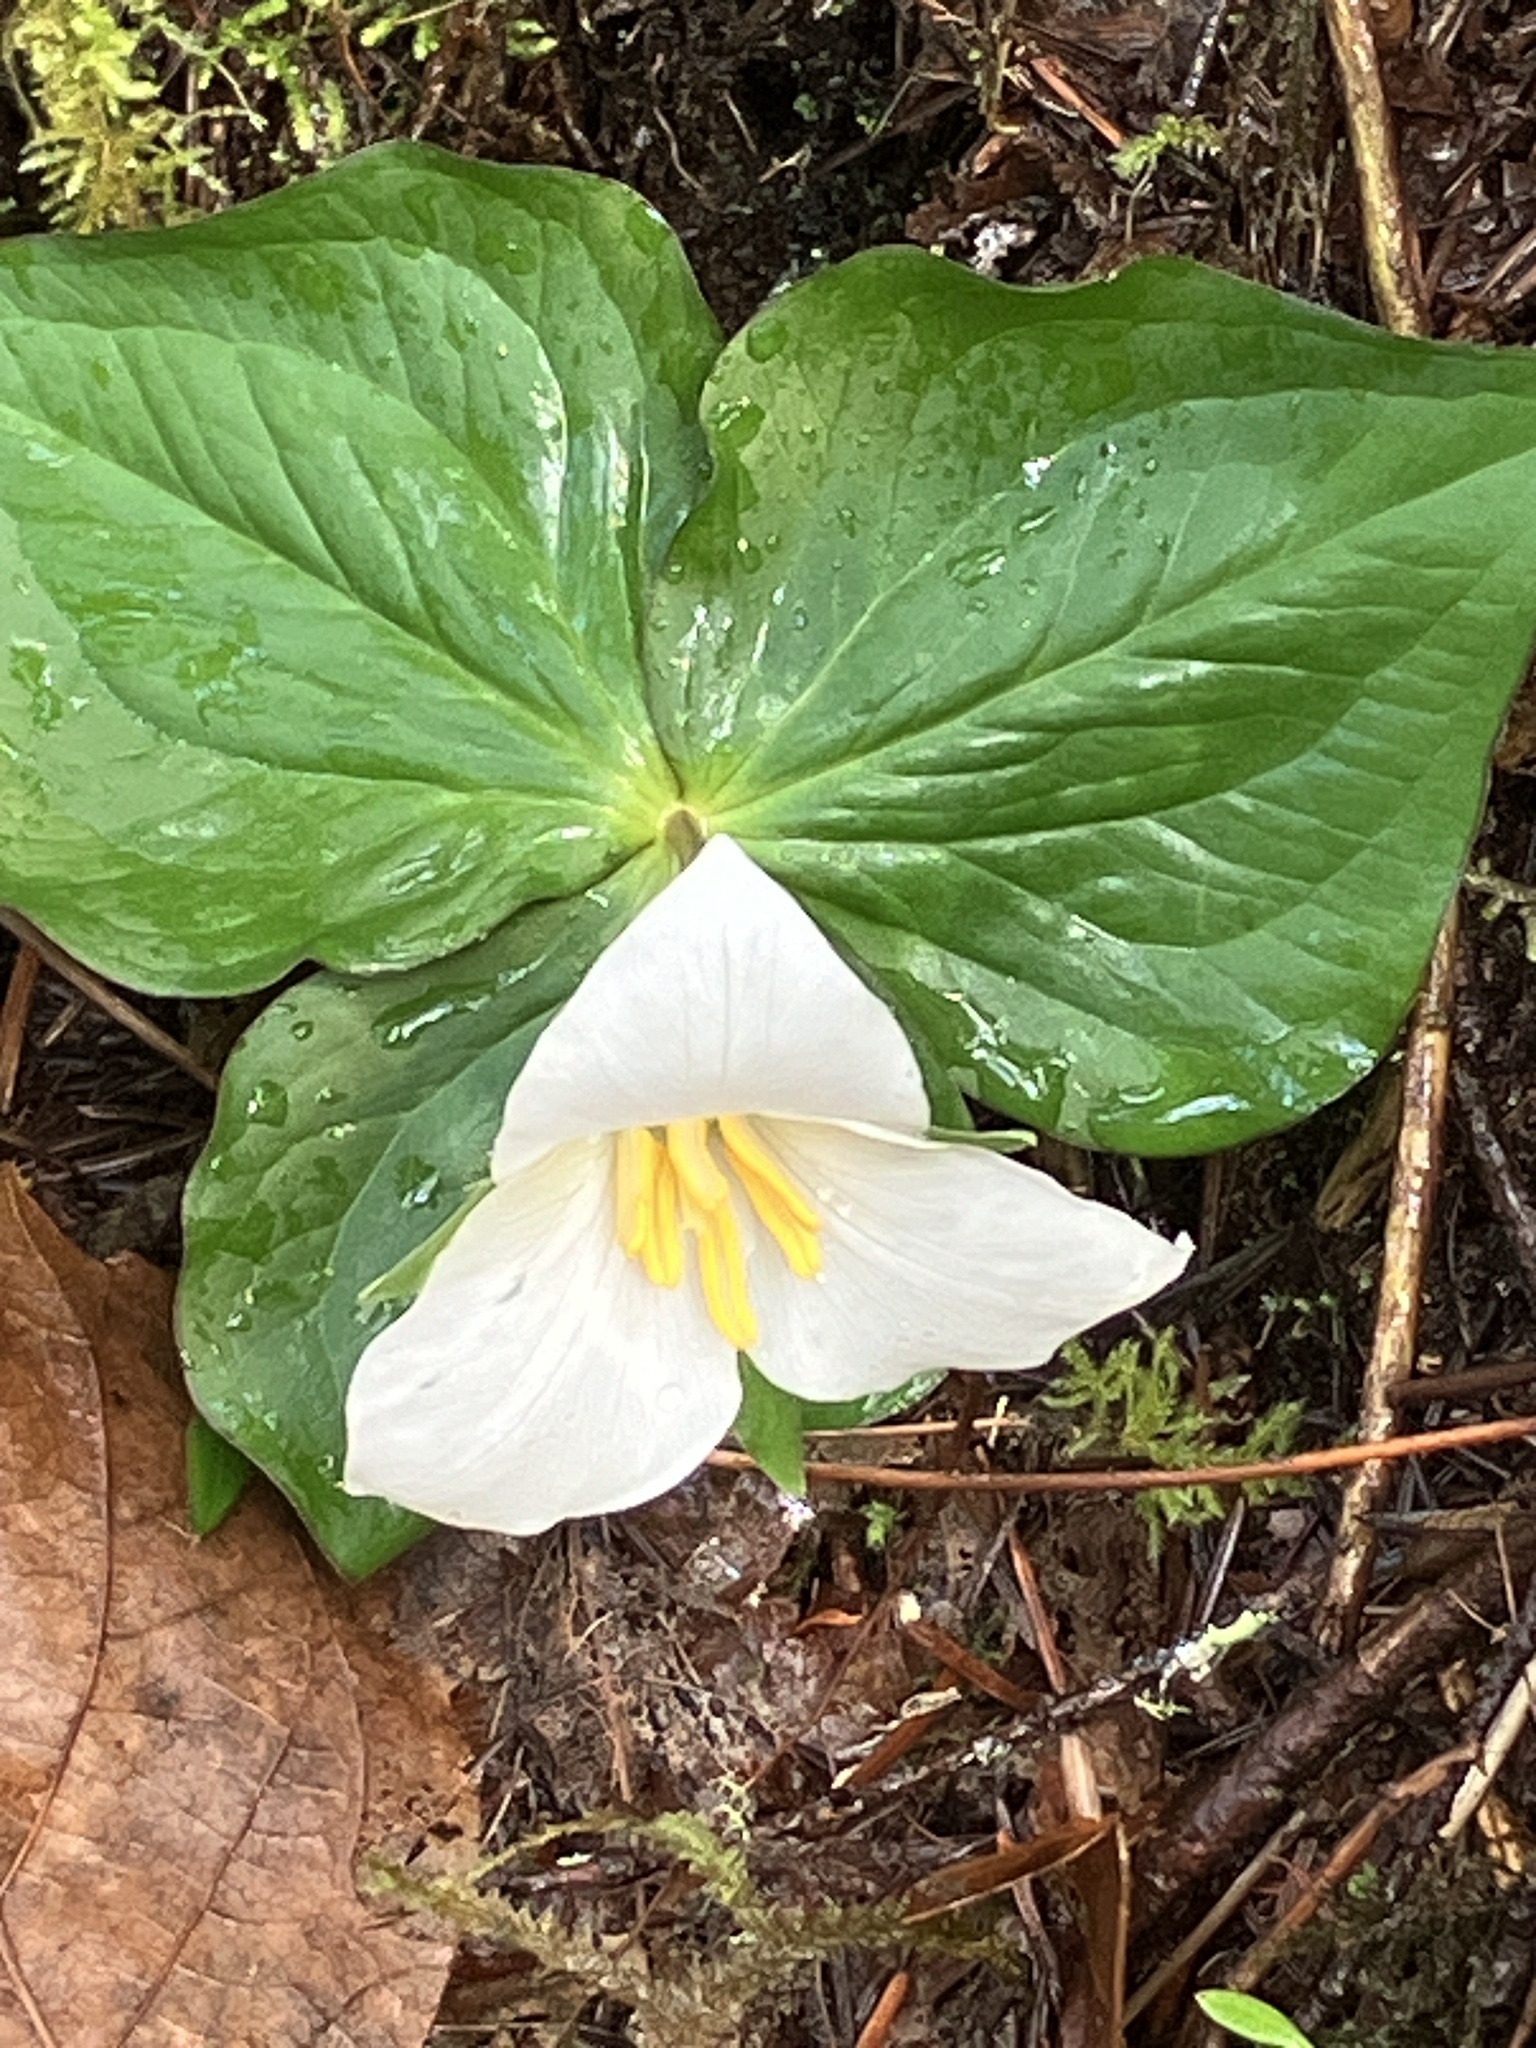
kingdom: Plantae
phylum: Tracheophyta
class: Liliopsida
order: Liliales
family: Melanthiaceae
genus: Trillium
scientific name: Trillium ovatum
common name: Pacific trillium
